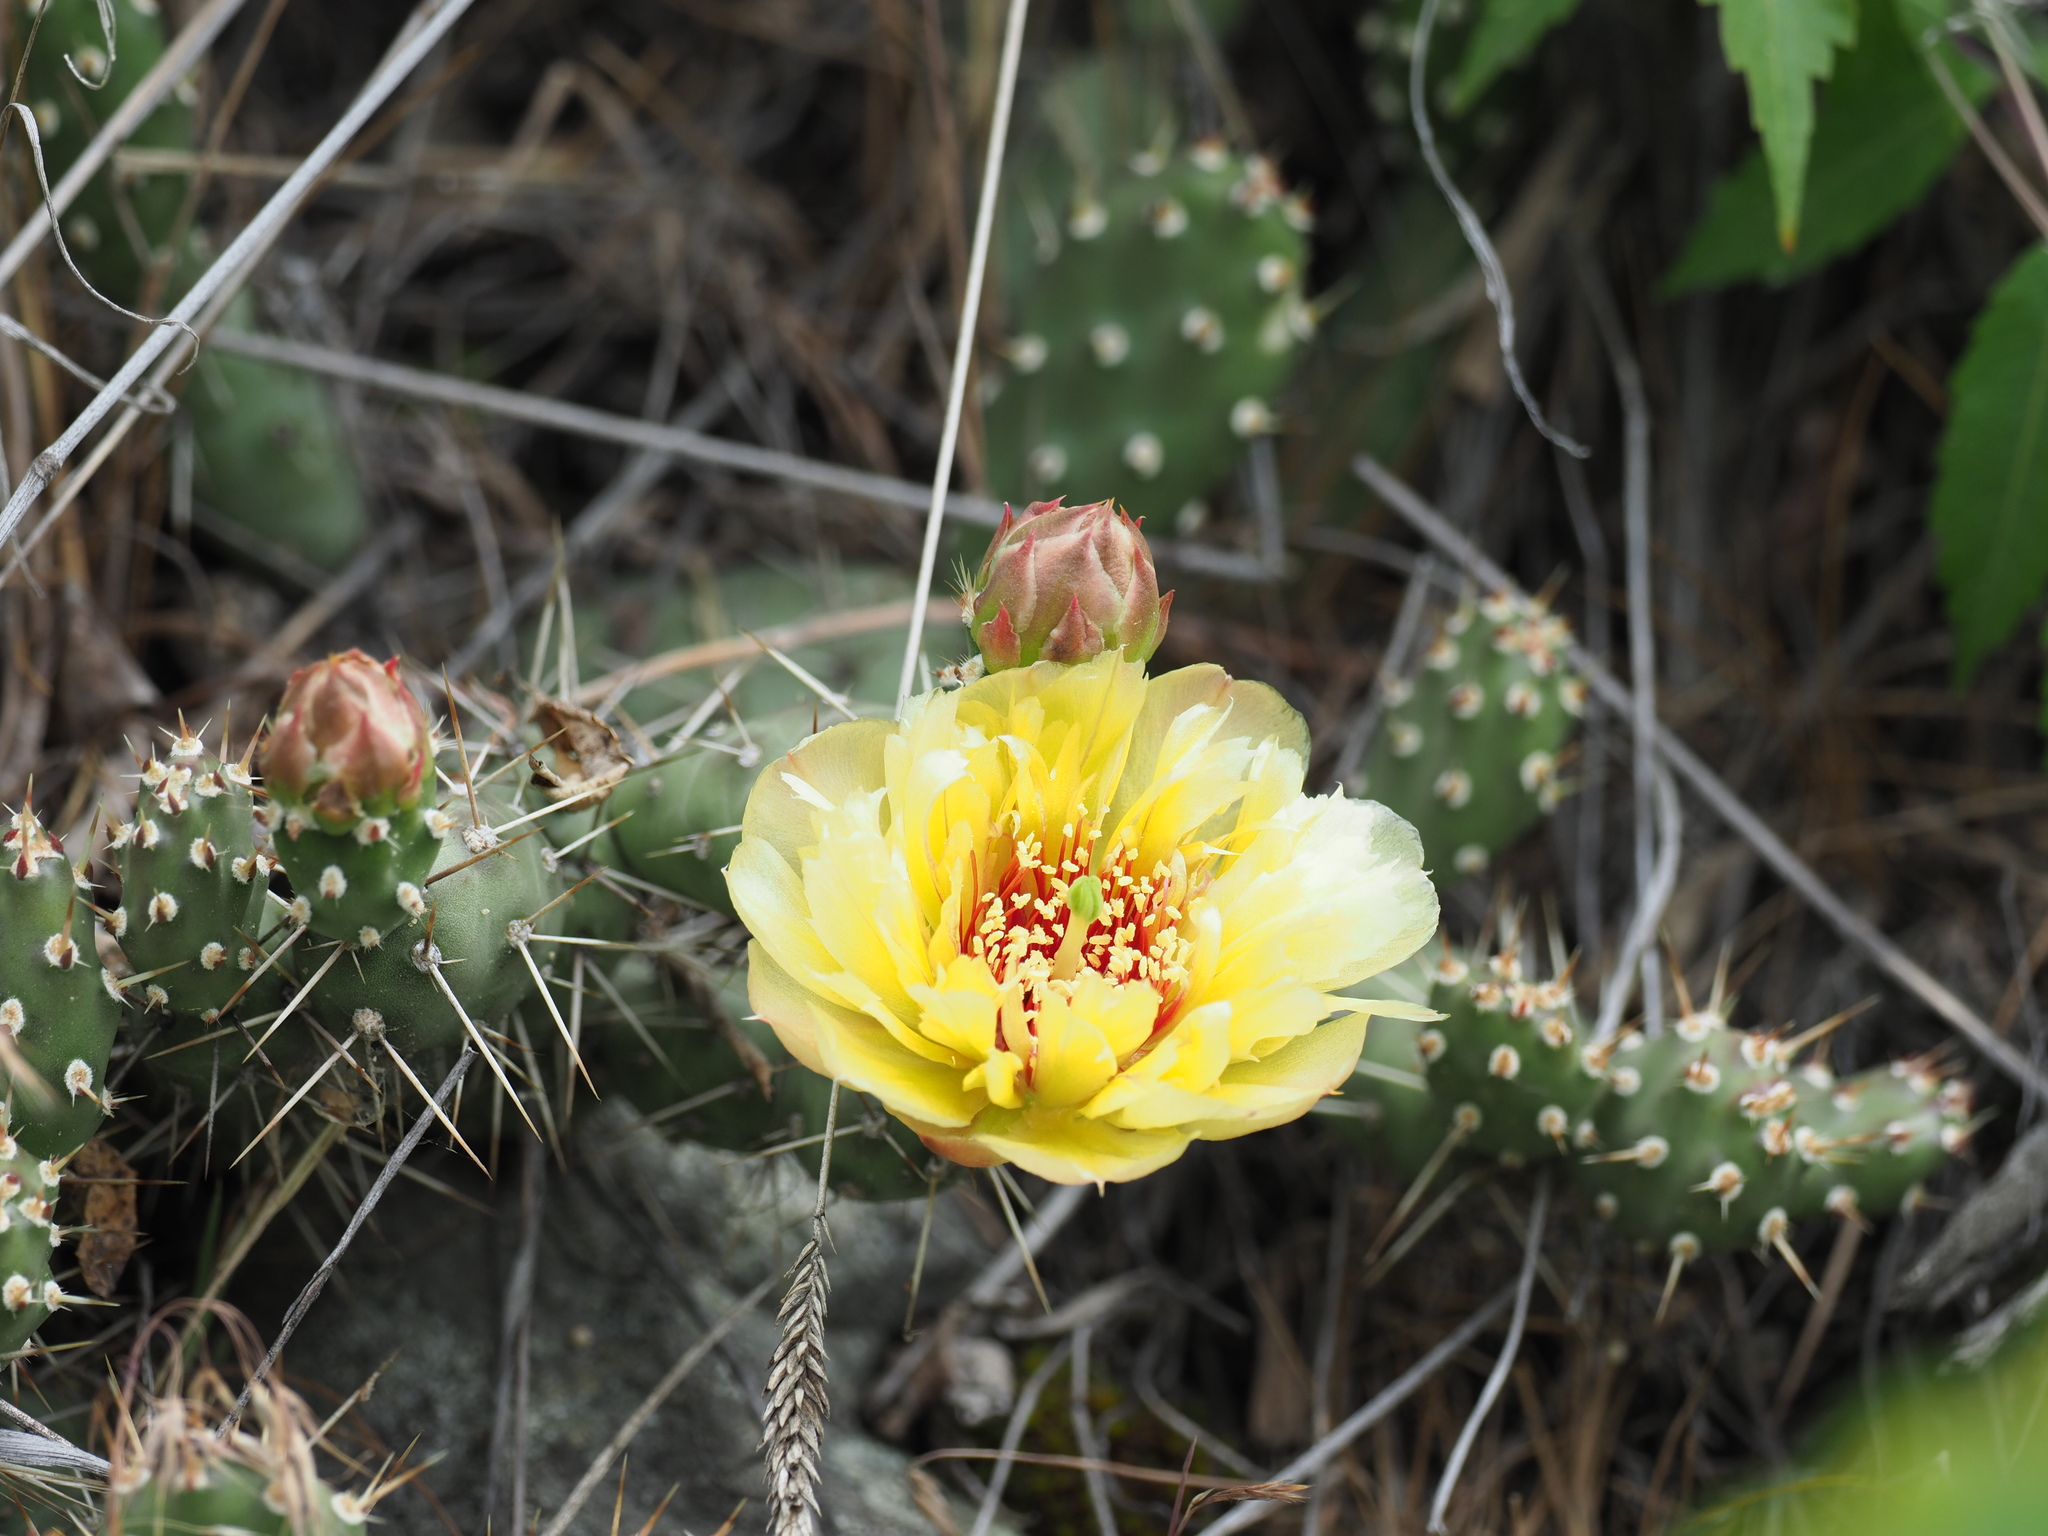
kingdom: Plantae
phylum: Tracheophyta
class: Magnoliopsida
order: Caryophyllales
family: Cactaceae
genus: Opuntia
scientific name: Opuntia fragilis
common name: Brittle cactus
